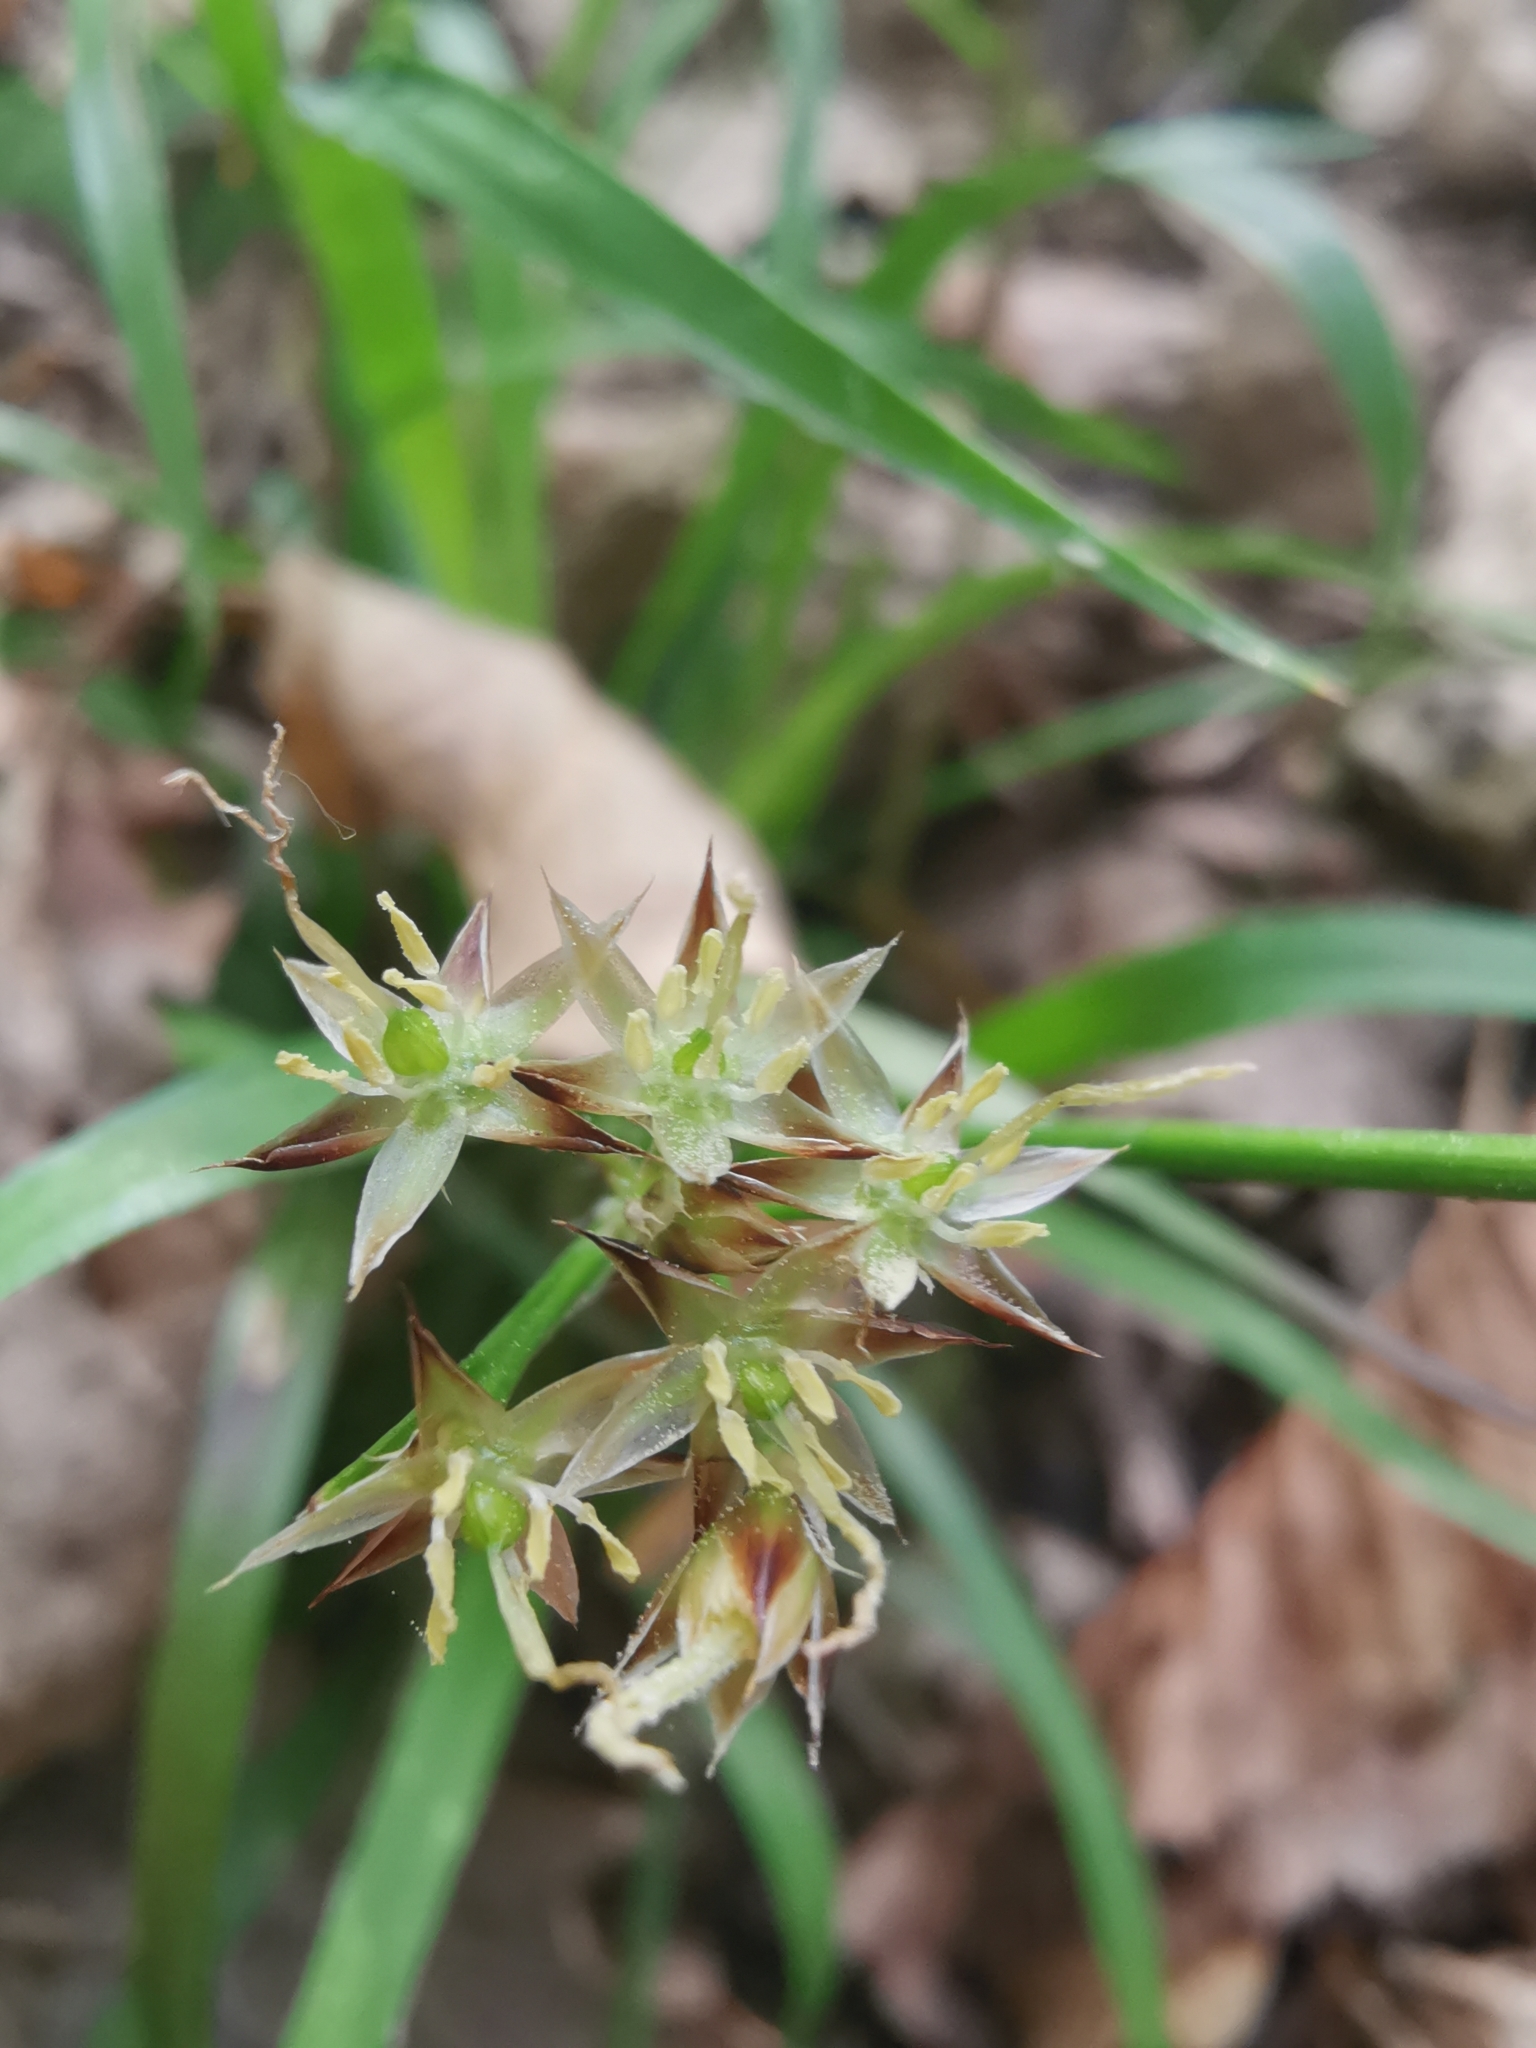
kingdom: Plantae
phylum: Tracheophyta
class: Liliopsida
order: Poales
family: Juncaceae
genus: Luzula
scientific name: Luzula forsteri
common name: Southern wood-rush
